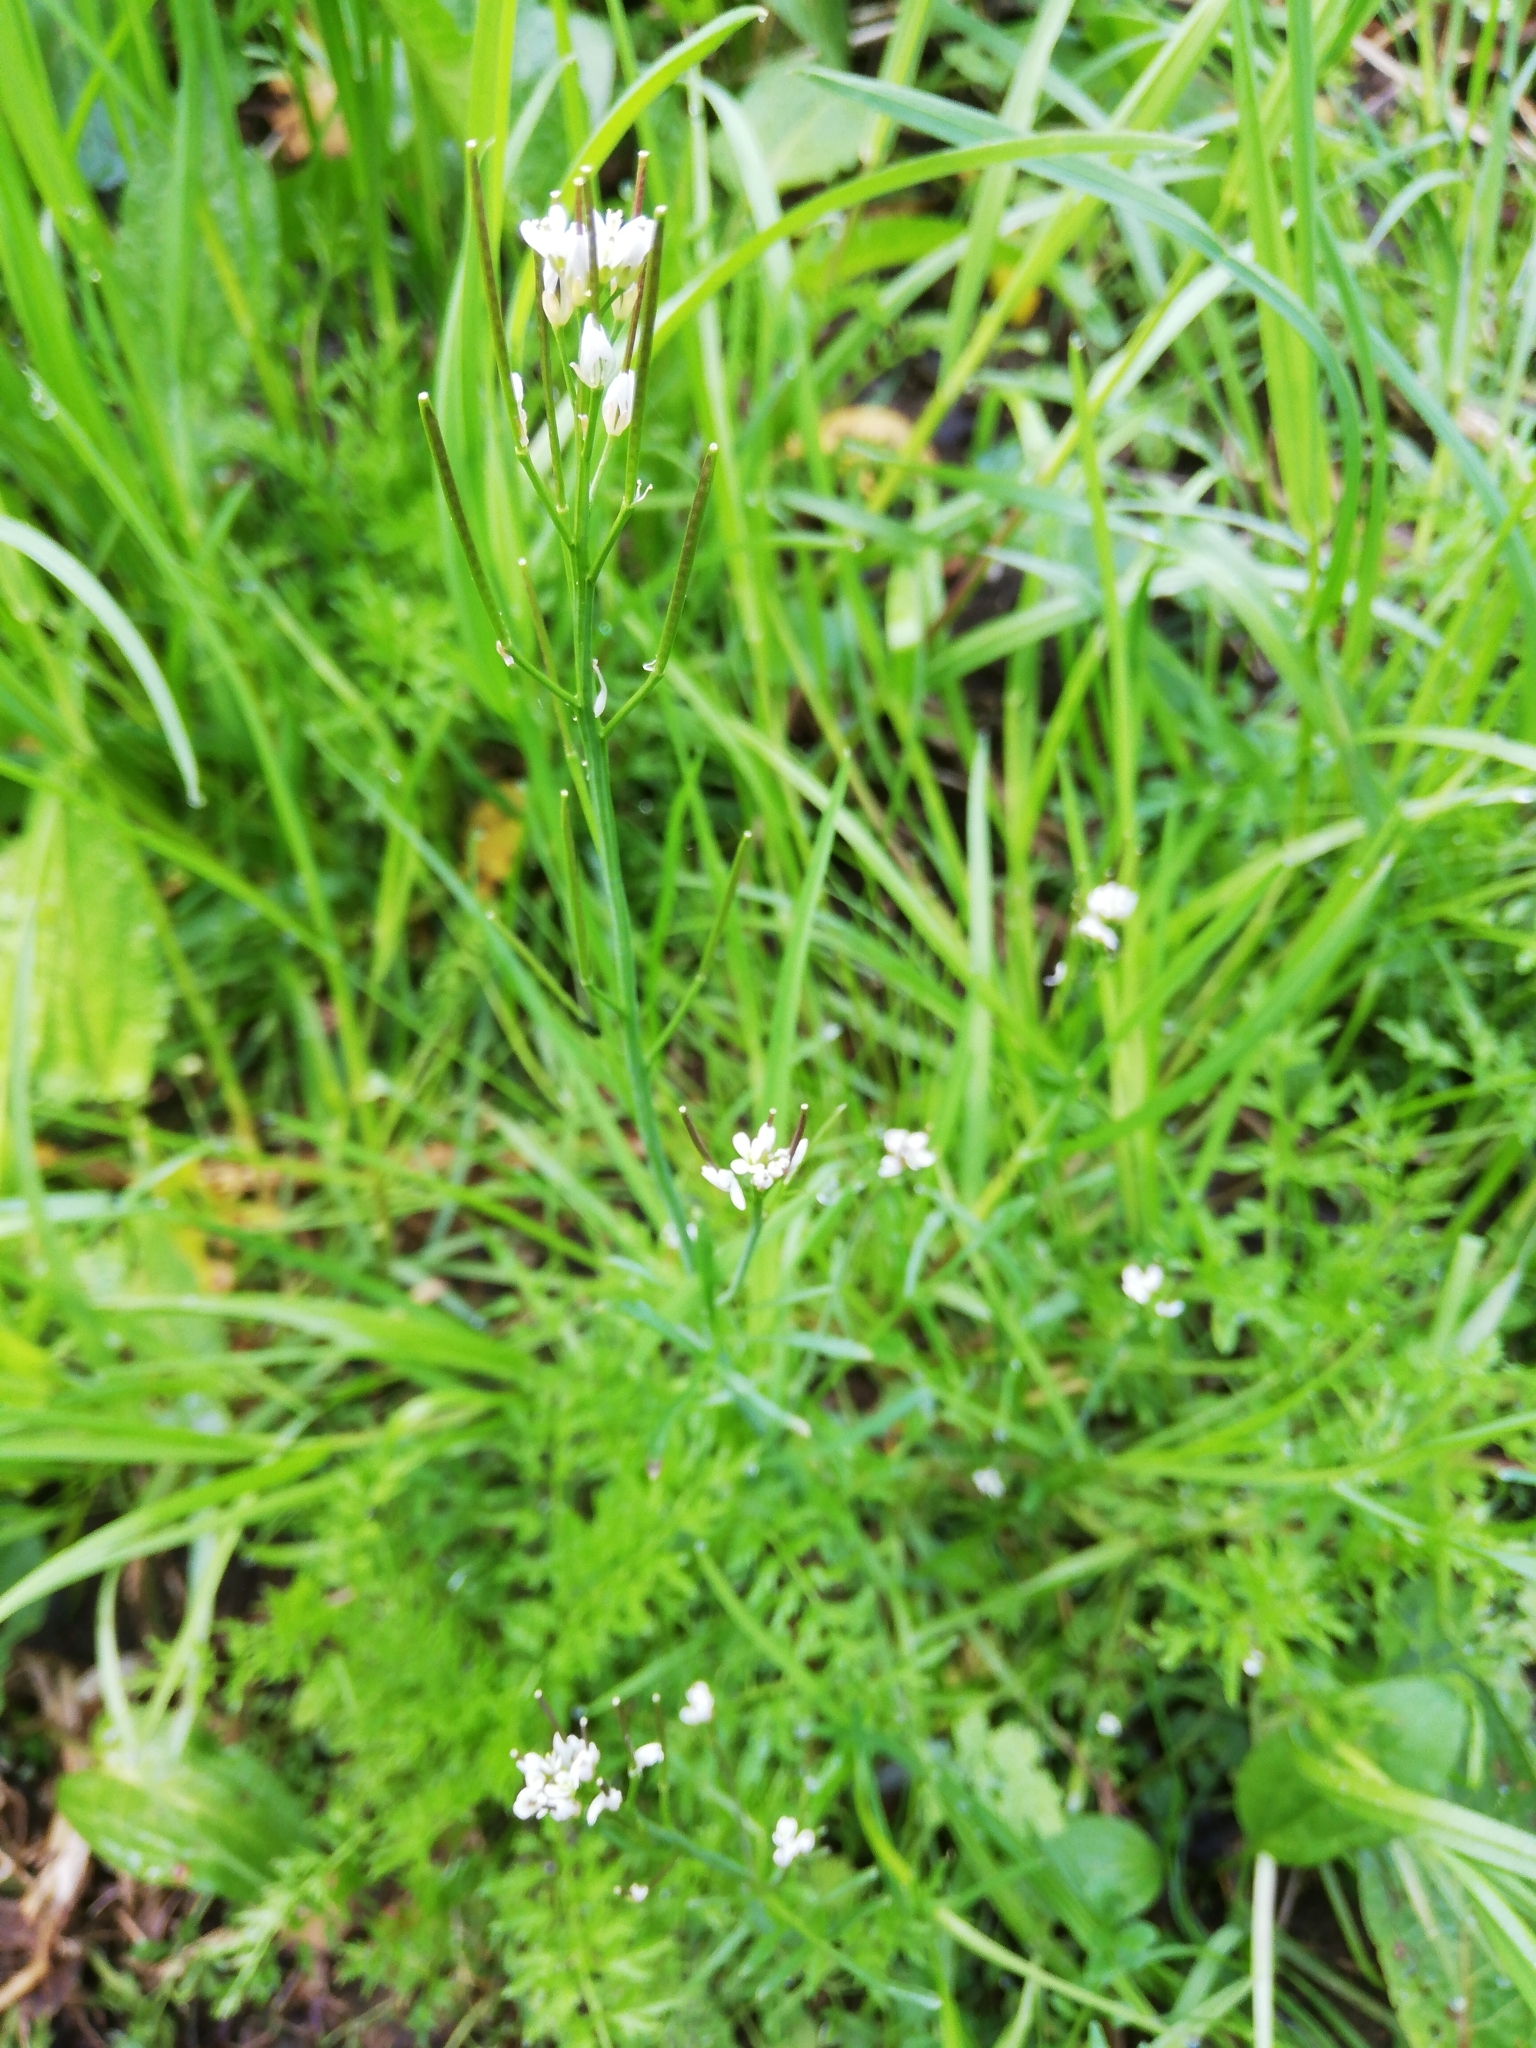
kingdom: Plantae
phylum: Tracheophyta
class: Magnoliopsida
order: Brassicales
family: Brassicaceae
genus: Cardamine
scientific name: Cardamine hirsuta
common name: Hairy bittercress
